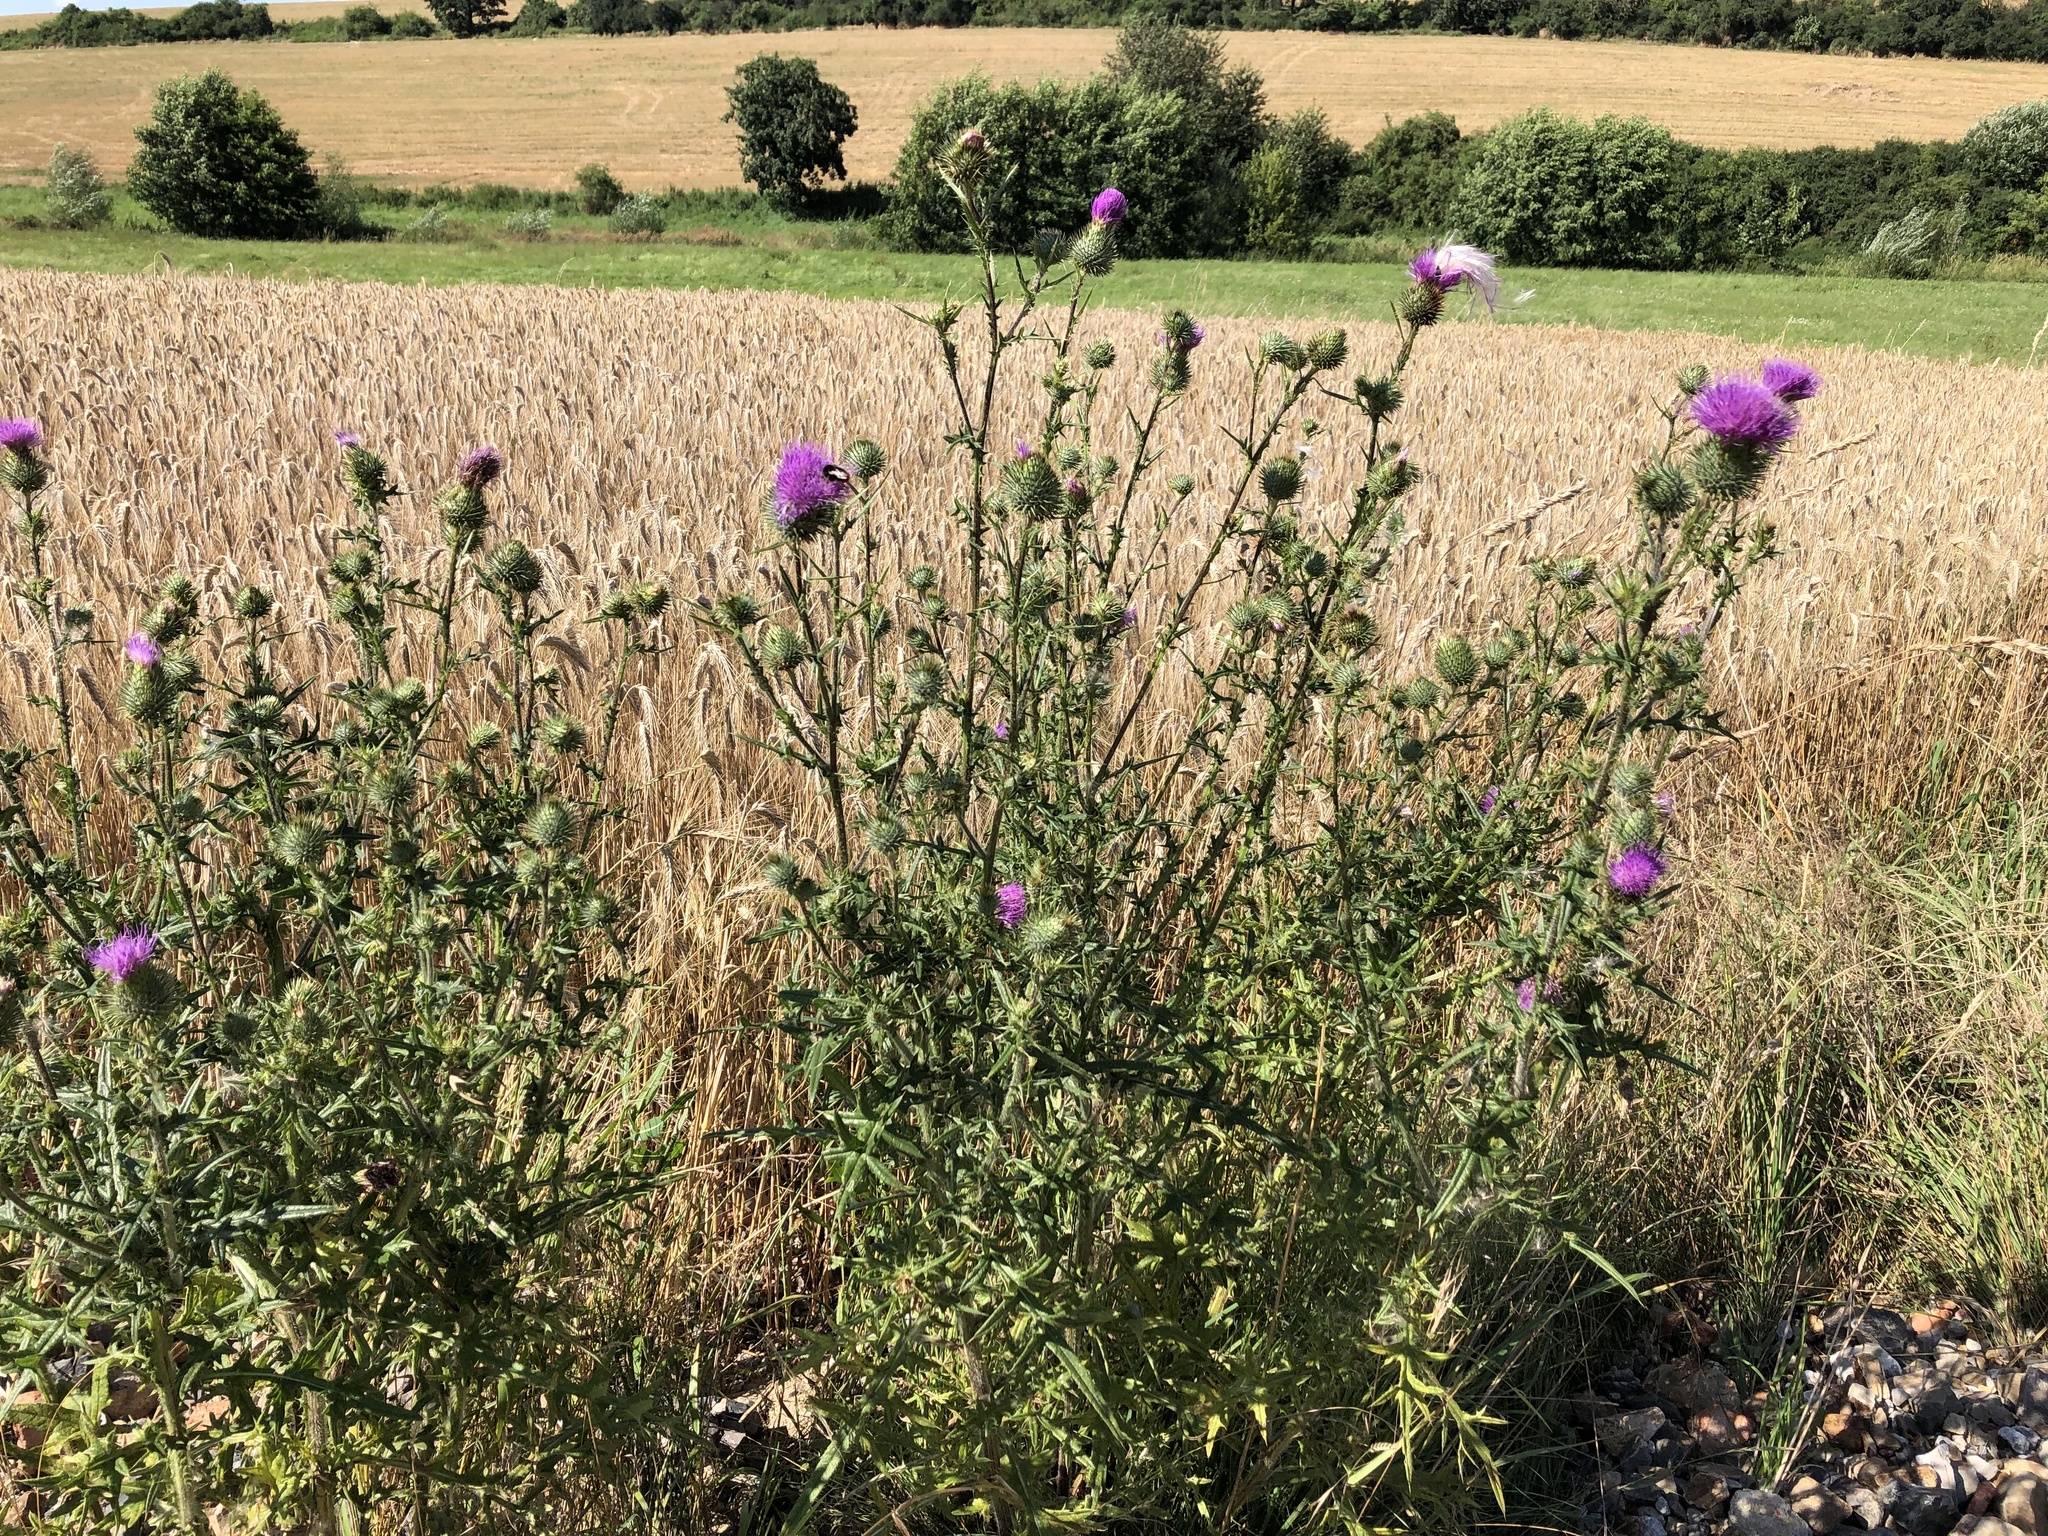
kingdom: Plantae
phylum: Tracheophyta
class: Magnoliopsida
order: Asterales
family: Asteraceae
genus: Cirsium
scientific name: Cirsium vulgare
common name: Bull thistle
